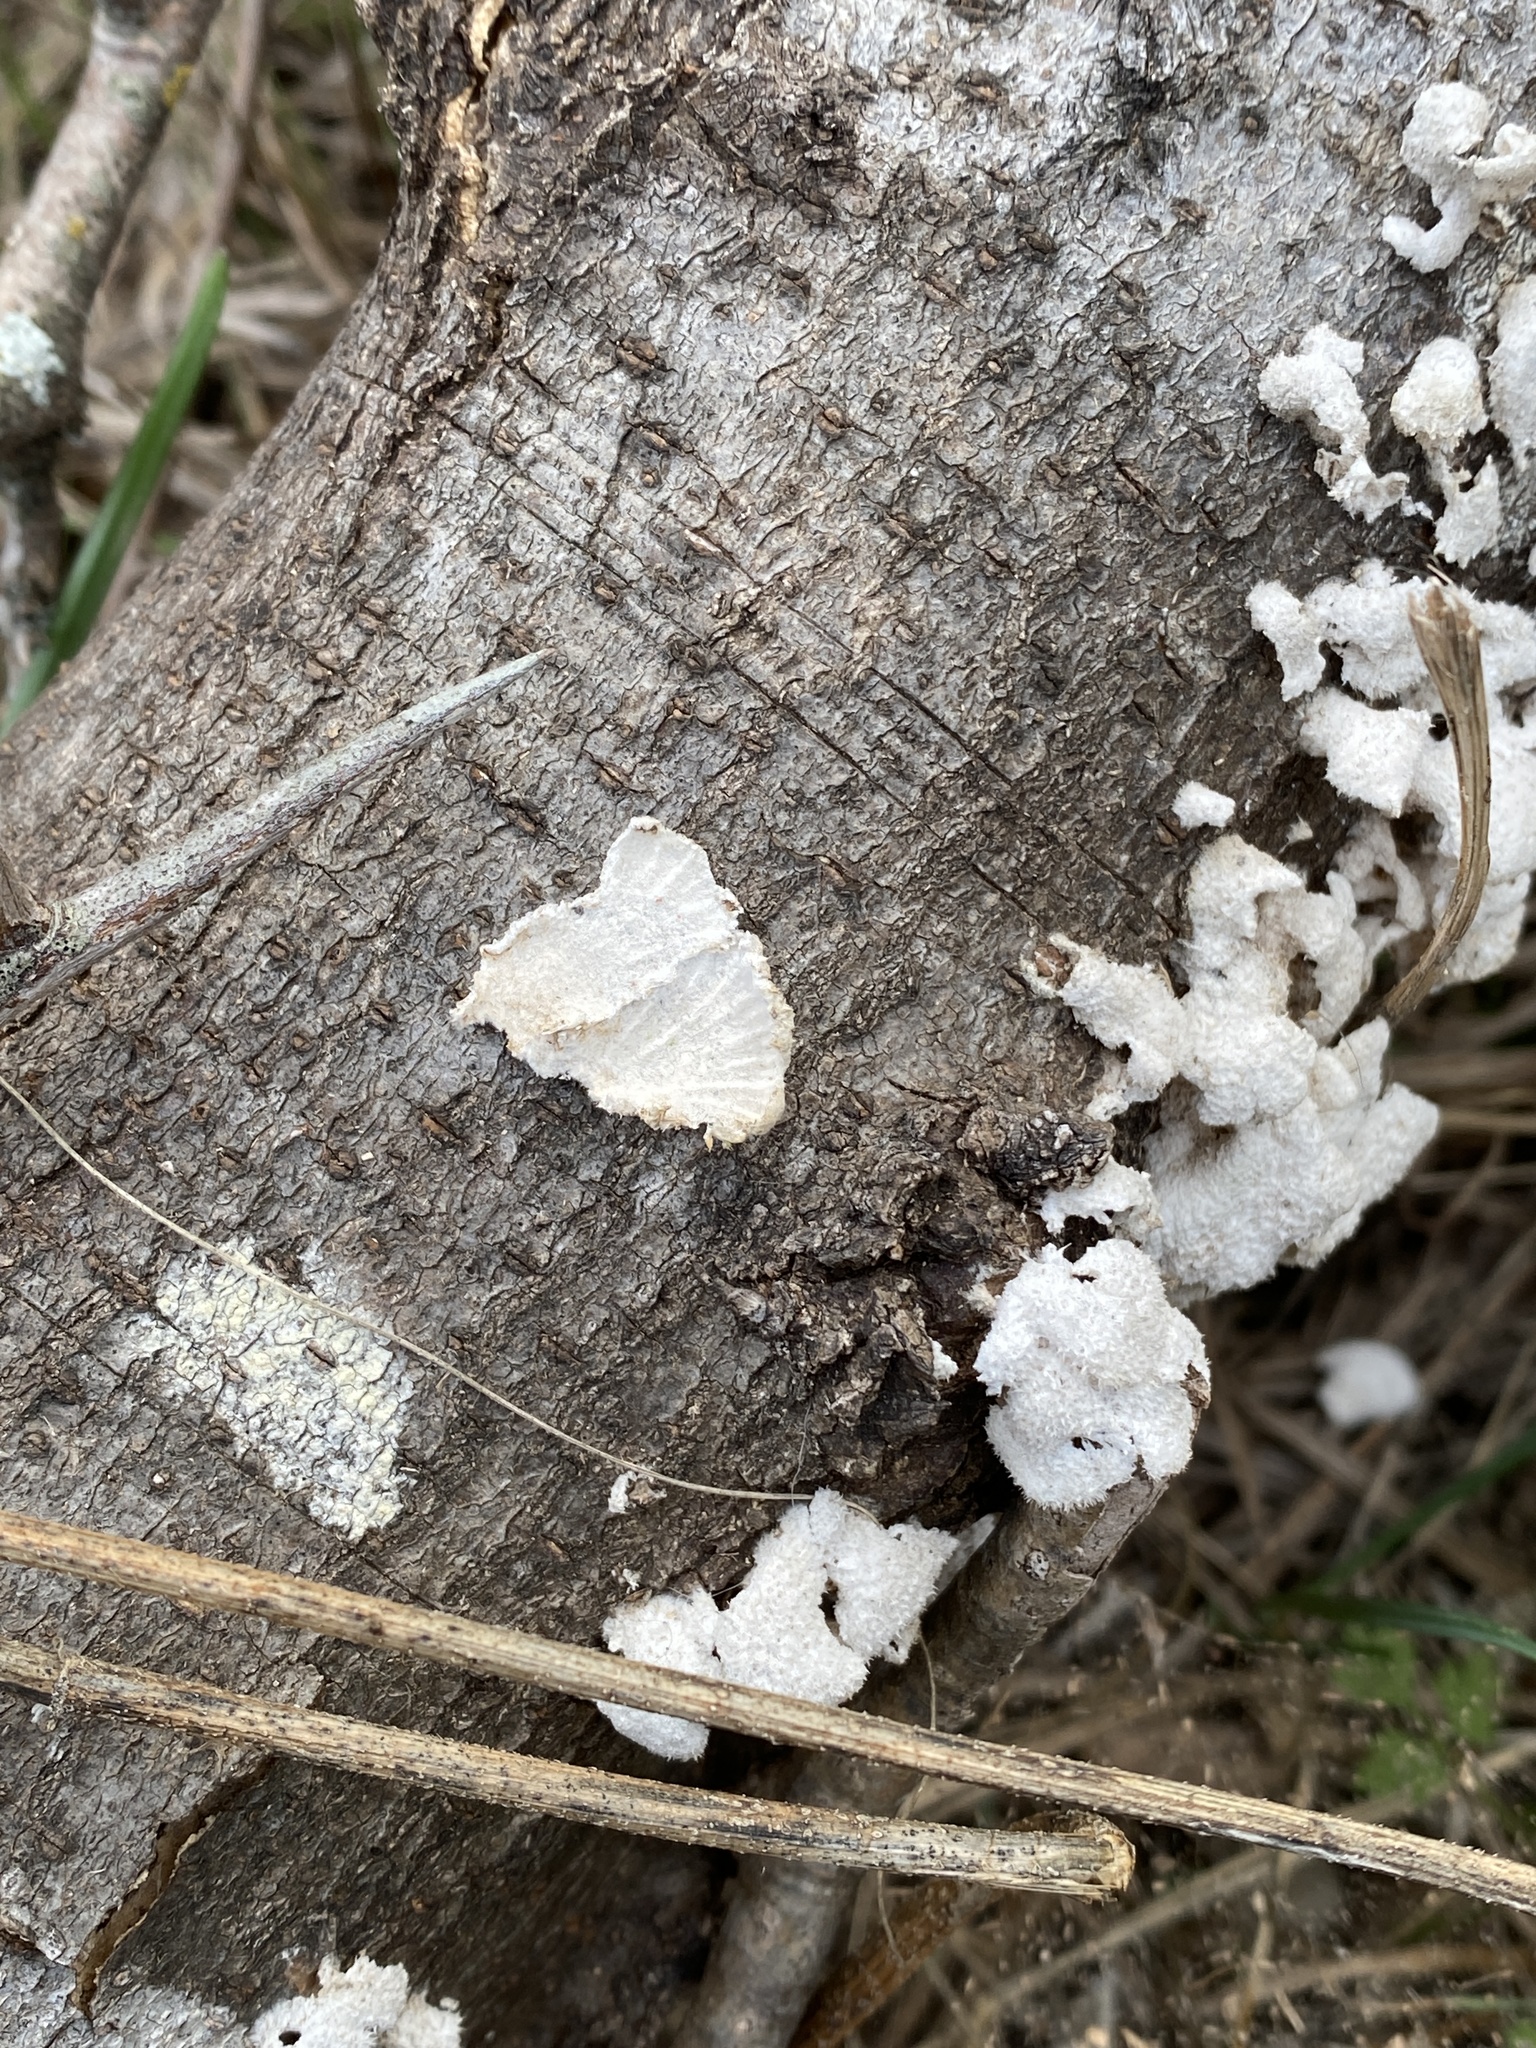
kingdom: Fungi
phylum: Basidiomycota
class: Agaricomycetes
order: Agaricales
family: Schizophyllaceae
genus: Schizophyllum
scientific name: Schizophyllum commune
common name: Common porecrust
